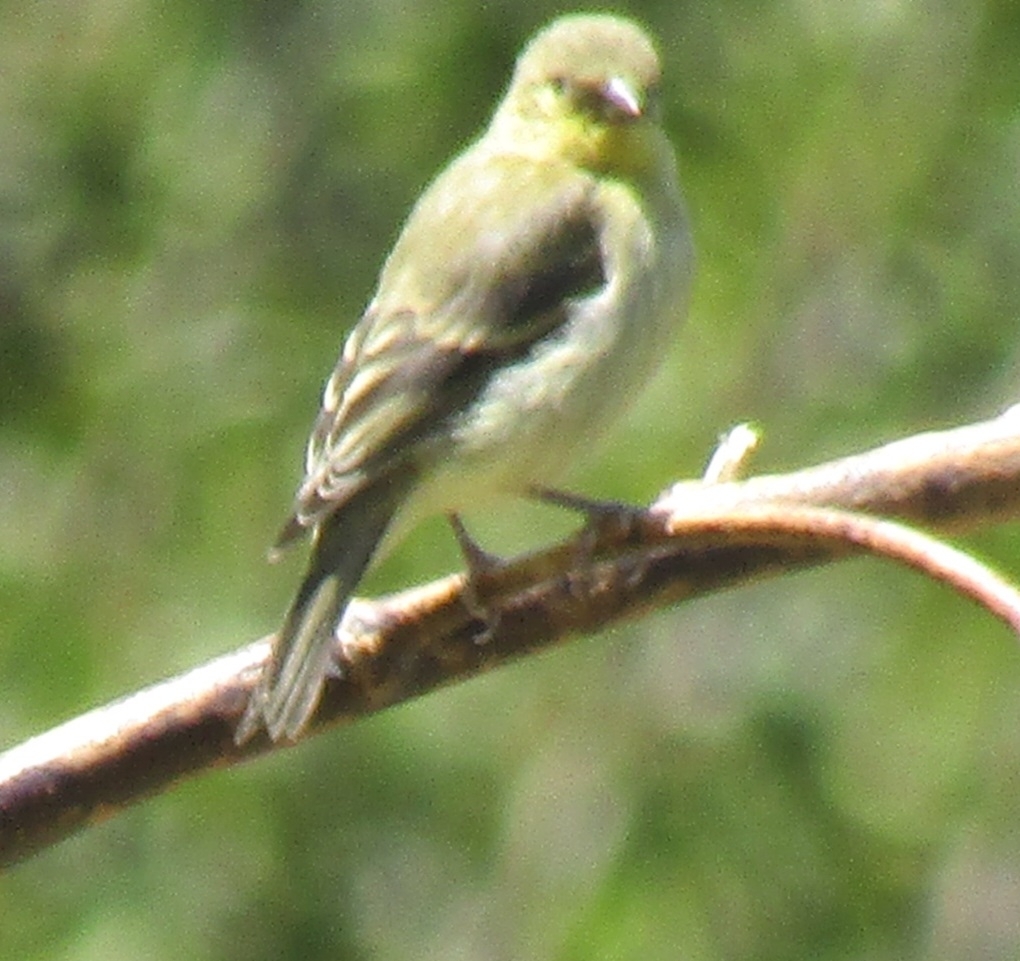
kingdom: Animalia
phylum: Chordata
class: Aves
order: Passeriformes
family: Fringillidae
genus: Spinus
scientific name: Spinus psaltria
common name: Lesser goldfinch
